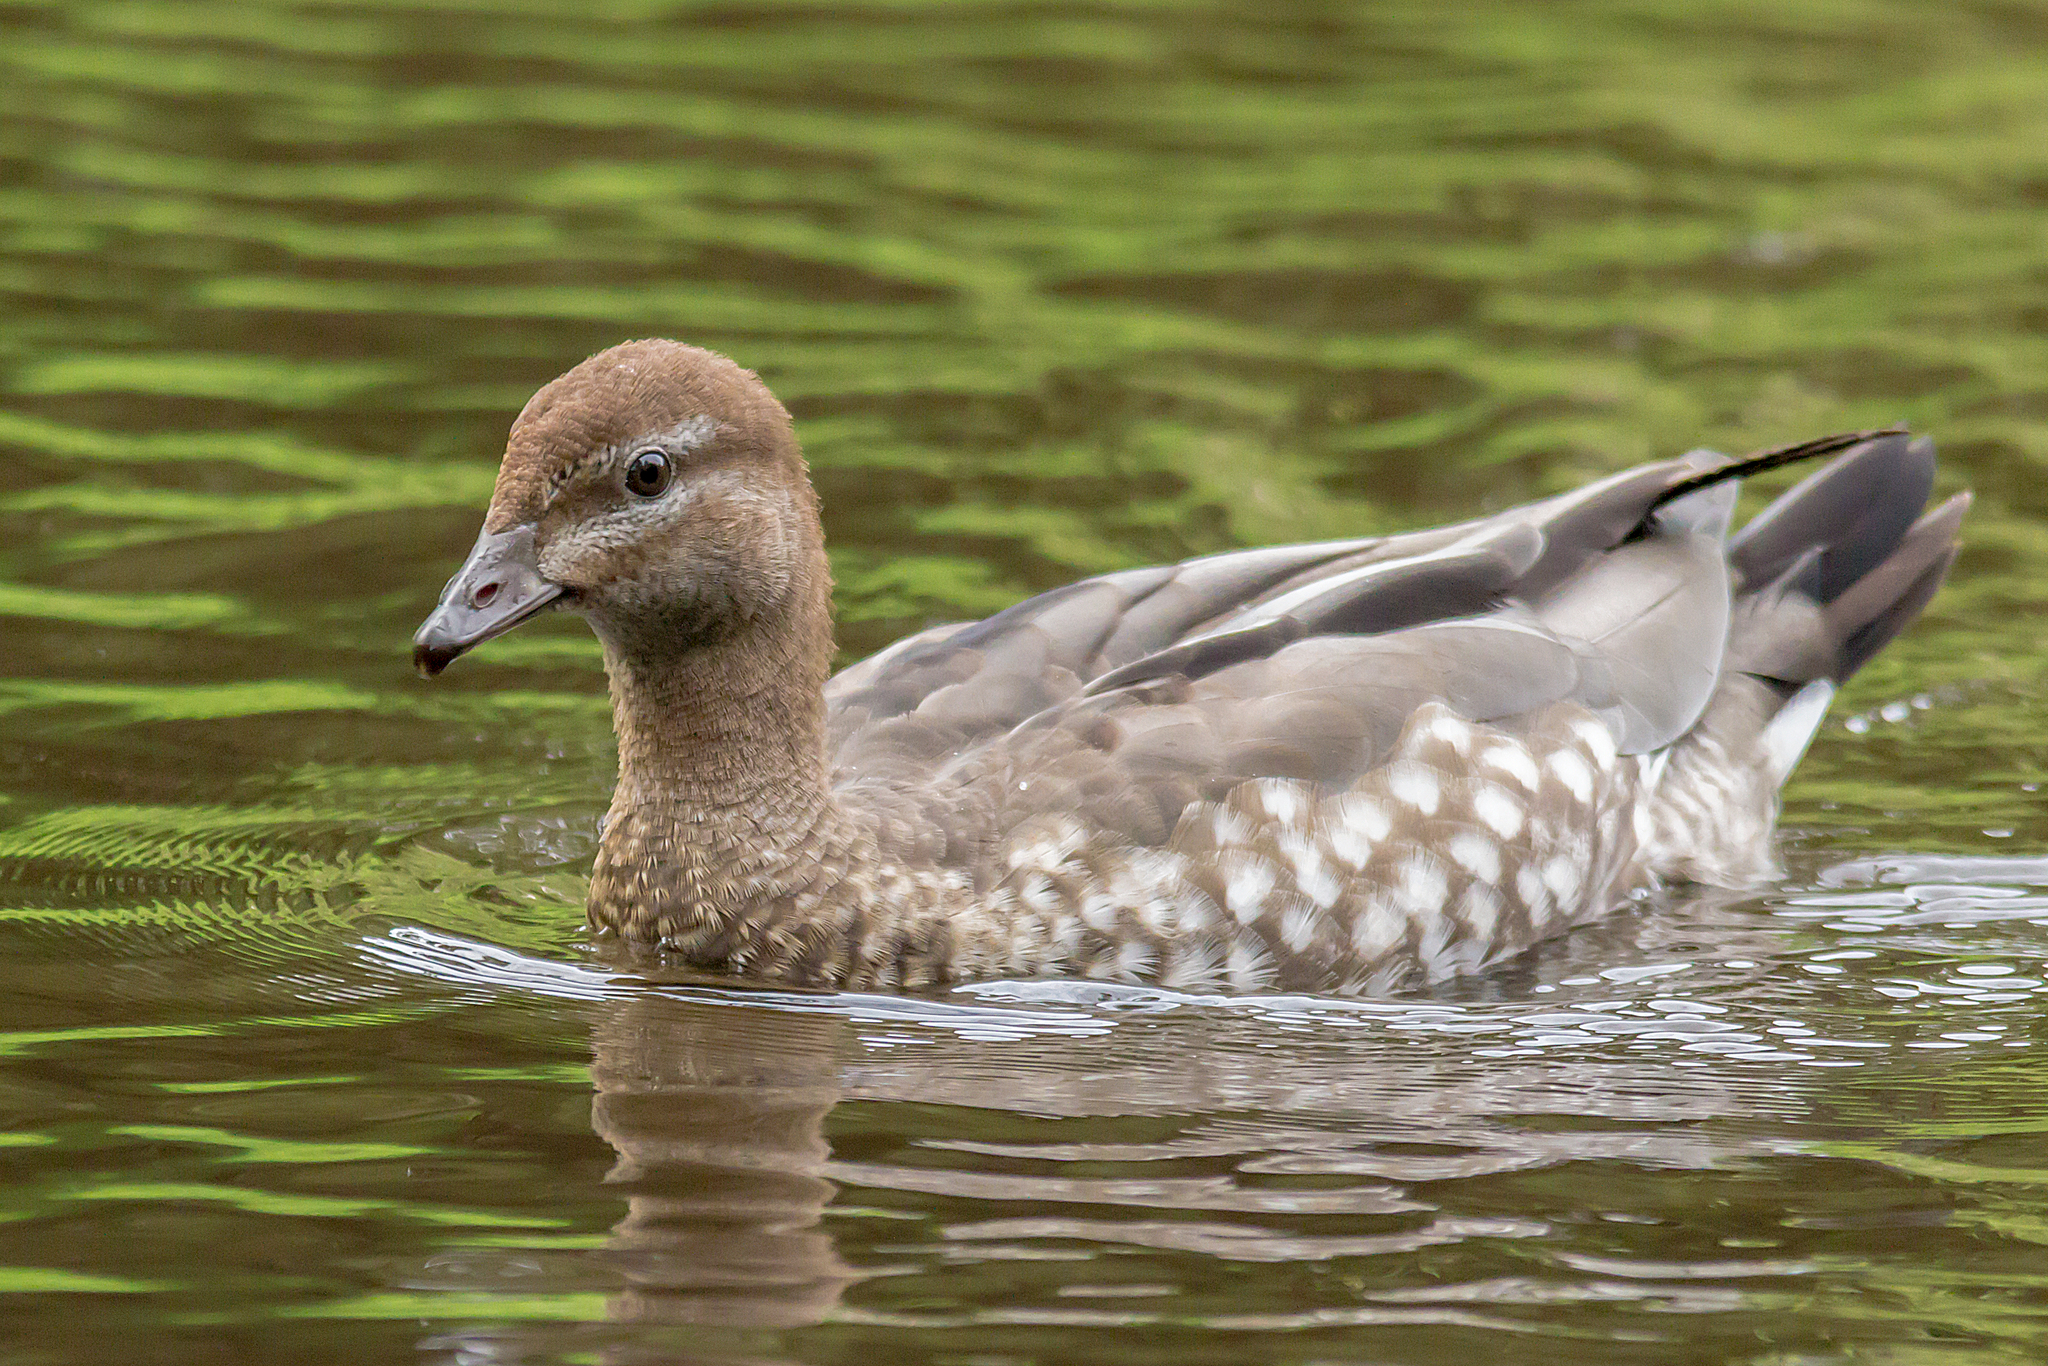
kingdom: Animalia
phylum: Chordata
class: Aves
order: Anseriformes
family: Anatidae
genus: Chenonetta
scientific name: Chenonetta jubata
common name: Maned duck
